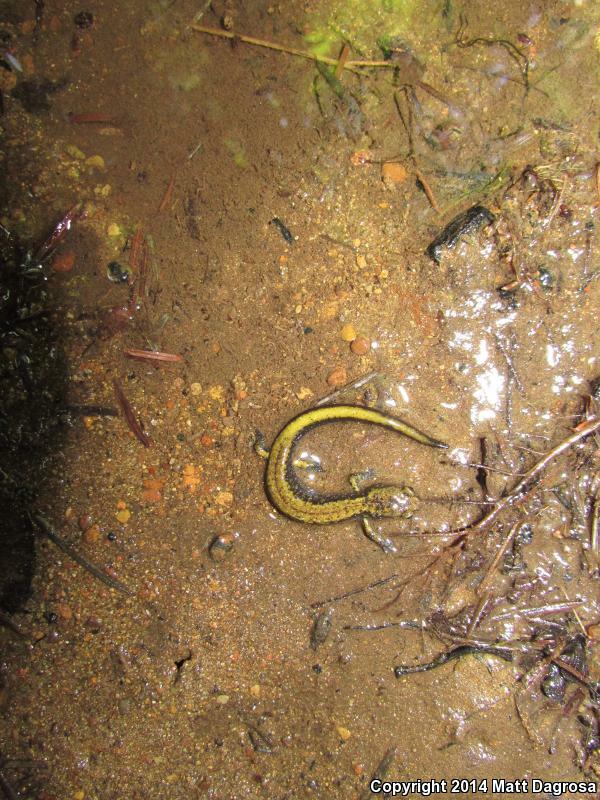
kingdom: Animalia
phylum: Chordata
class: Amphibia
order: Caudata
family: Plethodontidae
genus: Plethodon
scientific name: Plethodon dunni
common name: Dunn's salamander
